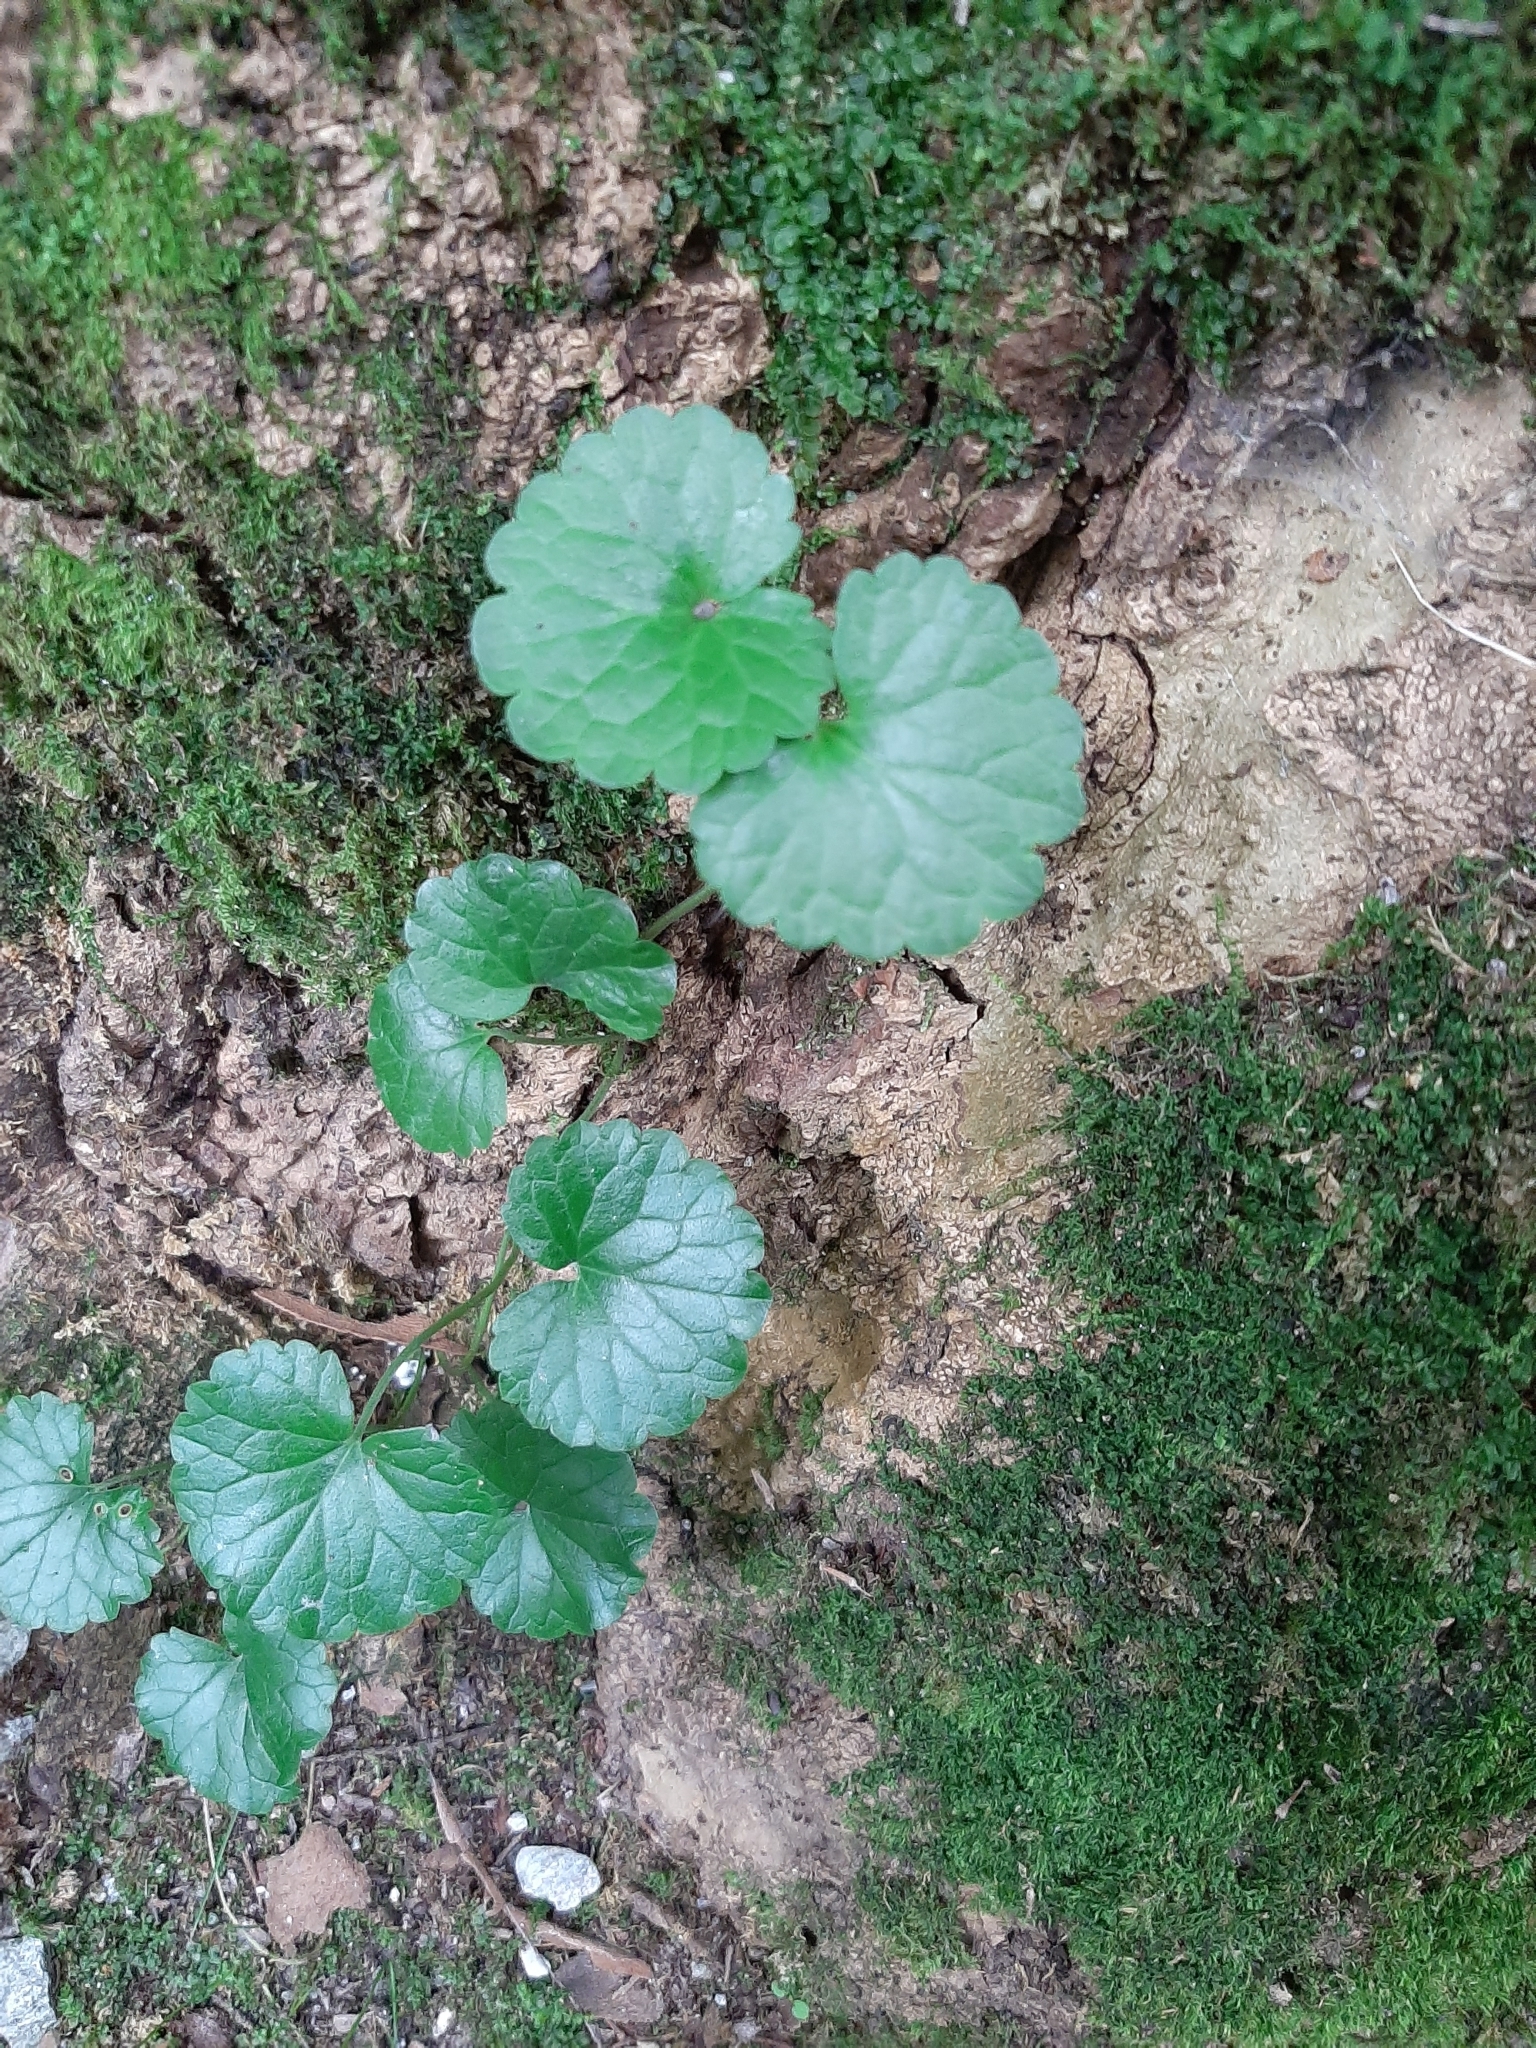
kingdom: Plantae
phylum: Tracheophyta
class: Magnoliopsida
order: Lamiales
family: Lamiaceae
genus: Glechoma
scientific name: Glechoma hederacea
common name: Ground ivy
